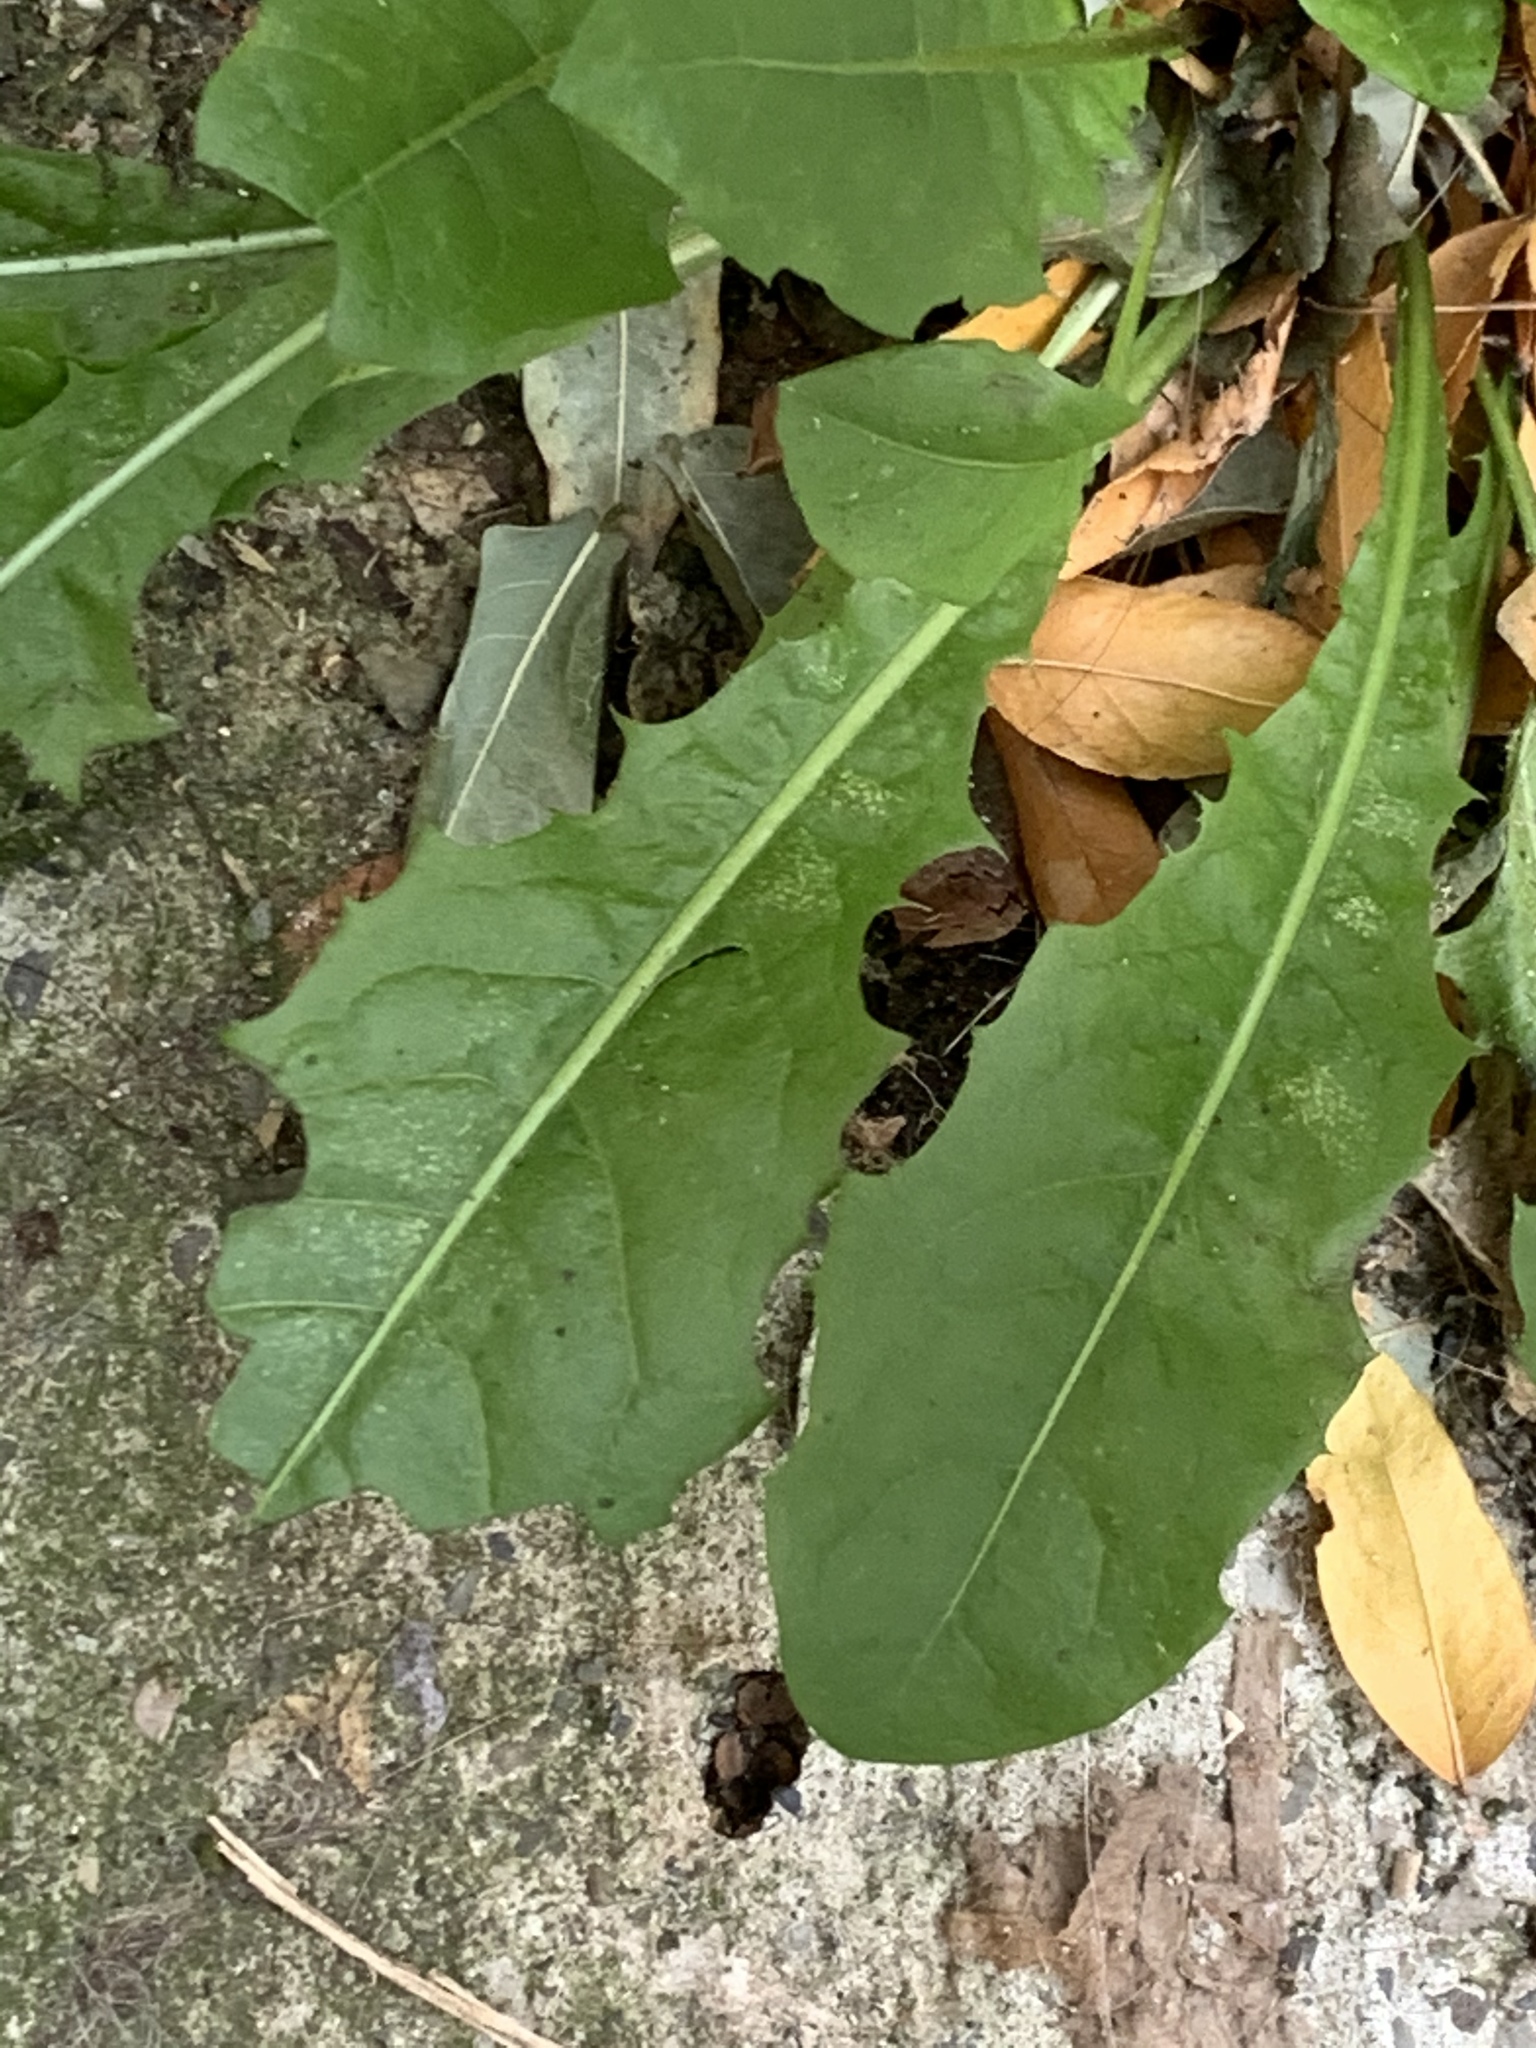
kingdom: Plantae
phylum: Tracheophyta
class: Magnoliopsida
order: Asterales
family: Asteraceae
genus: Taraxacum
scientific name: Taraxacum
